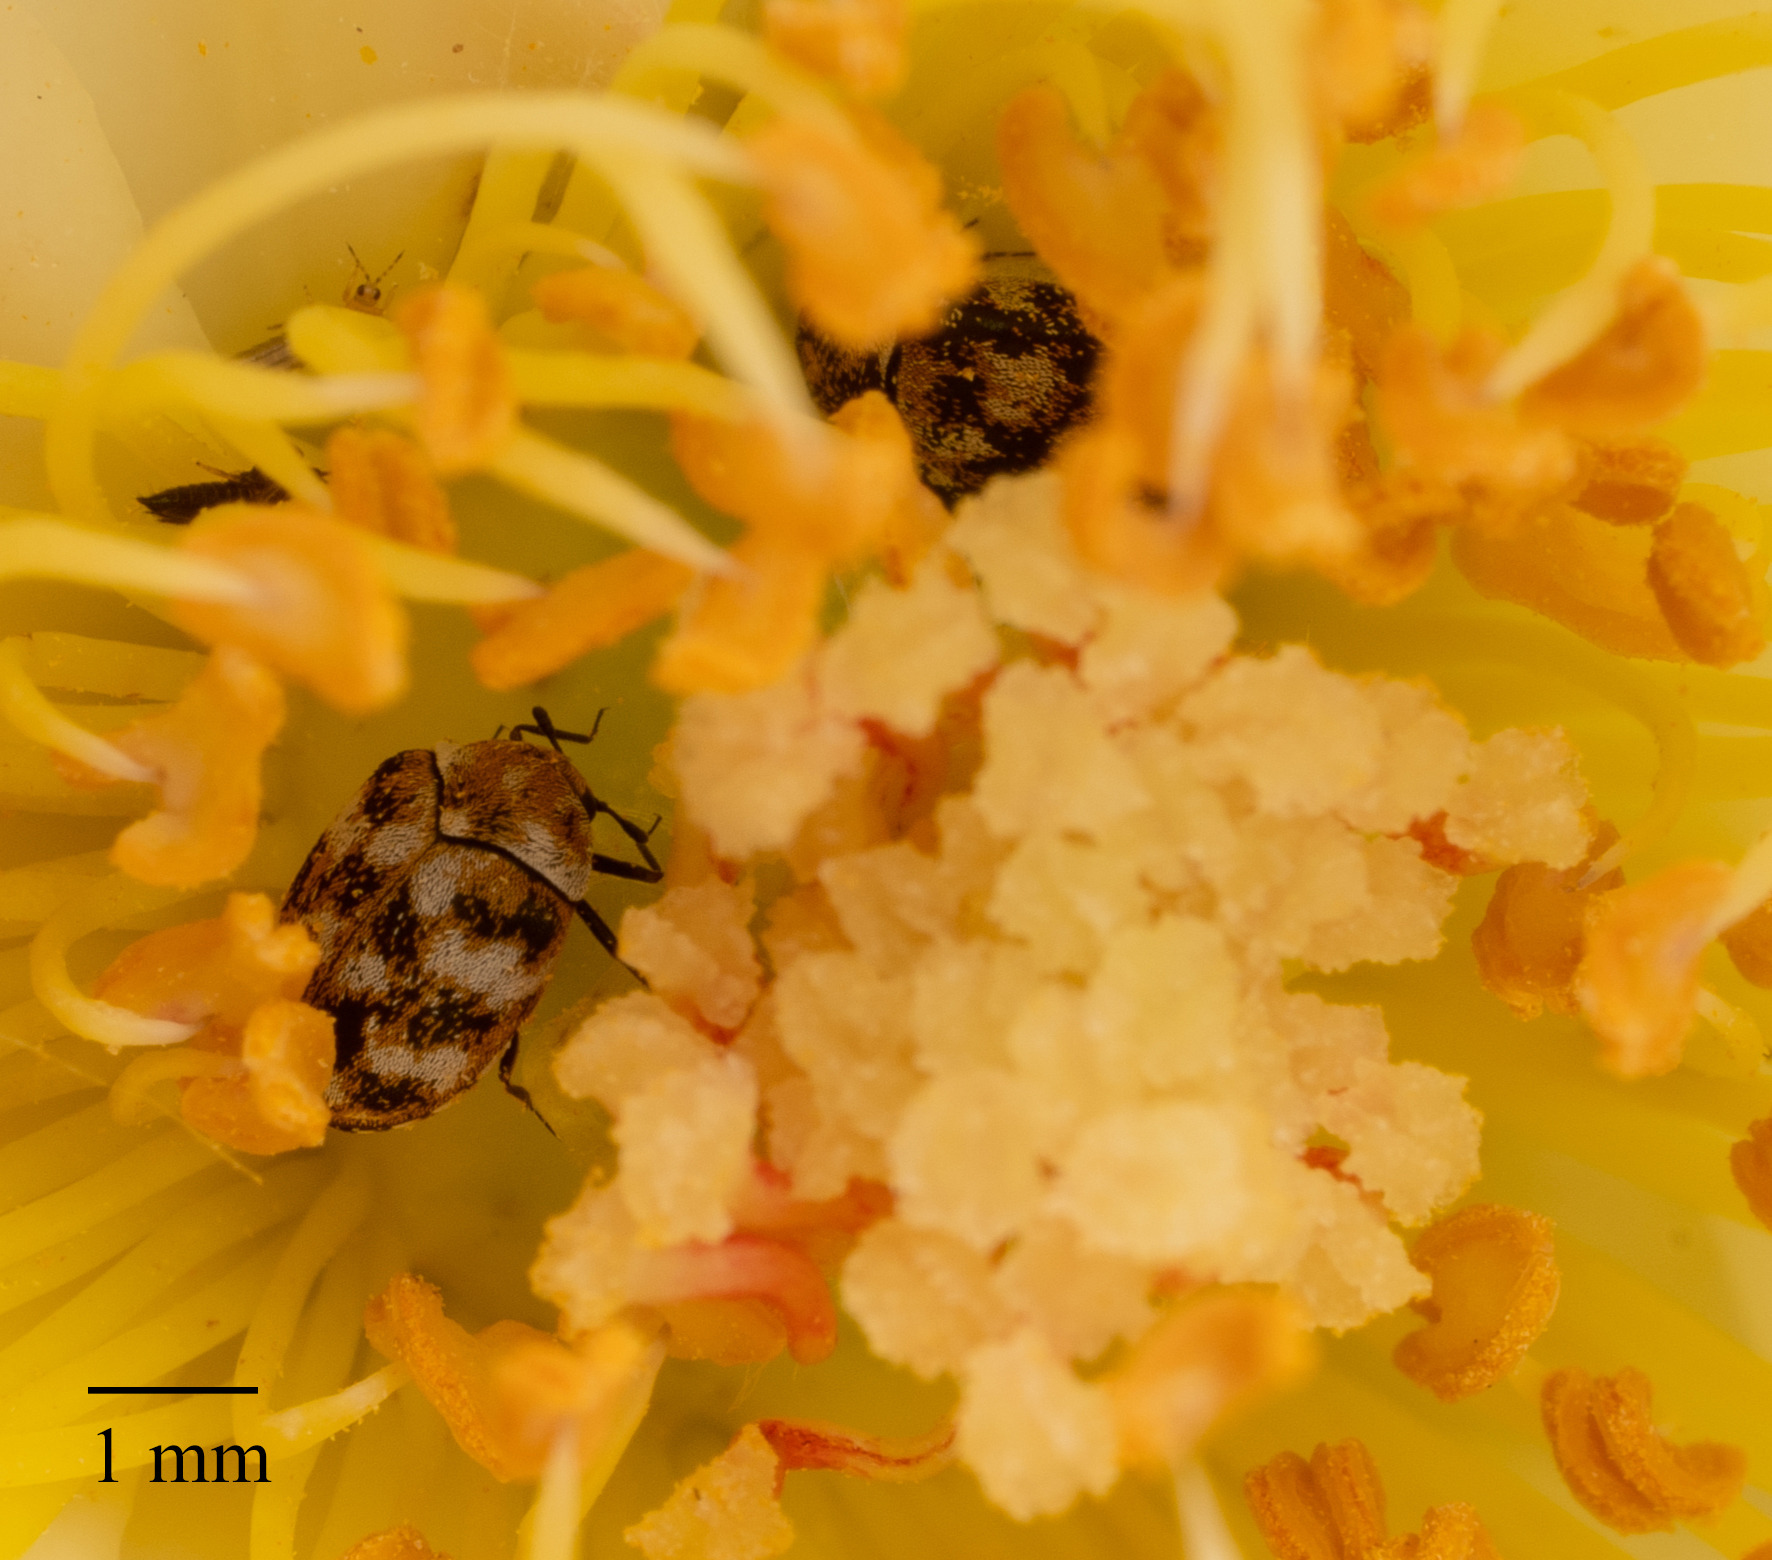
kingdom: Animalia
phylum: Arthropoda
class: Insecta
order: Coleoptera
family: Dermestidae
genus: Anthrenus
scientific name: Anthrenus verbasci
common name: Varied carpet beetle
